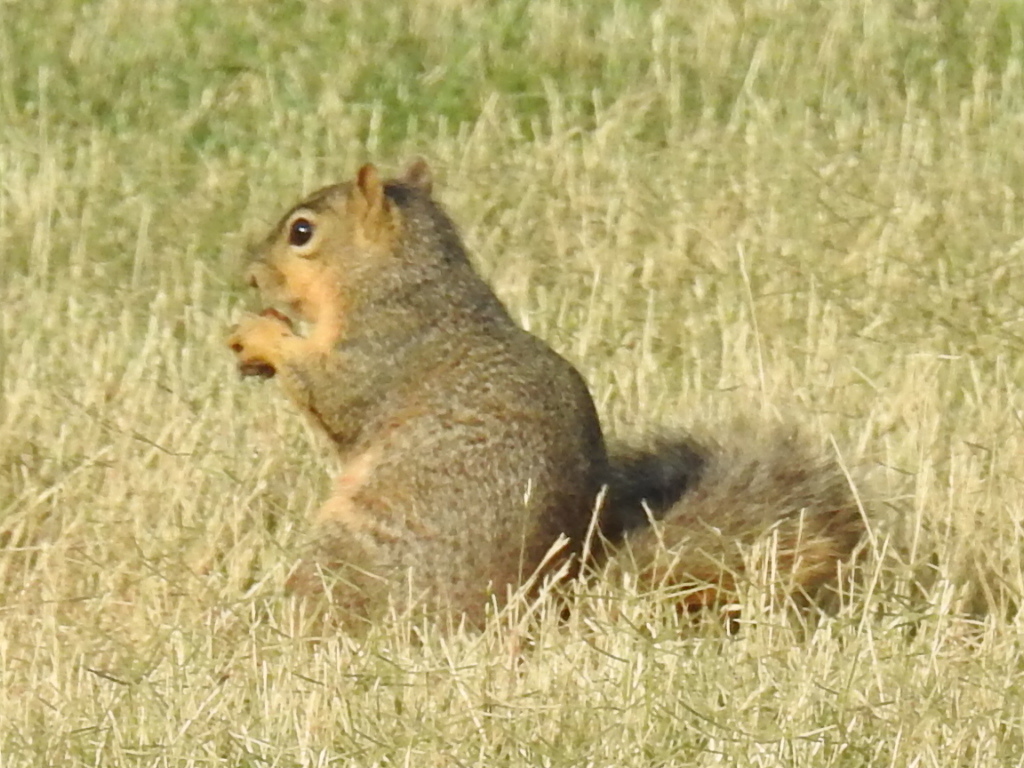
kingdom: Animalia
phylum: Chordata
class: Mammalia
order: Rodentia
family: Sciuridae
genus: Sciurus
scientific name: Sciurus niger
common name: Fox squirrel
